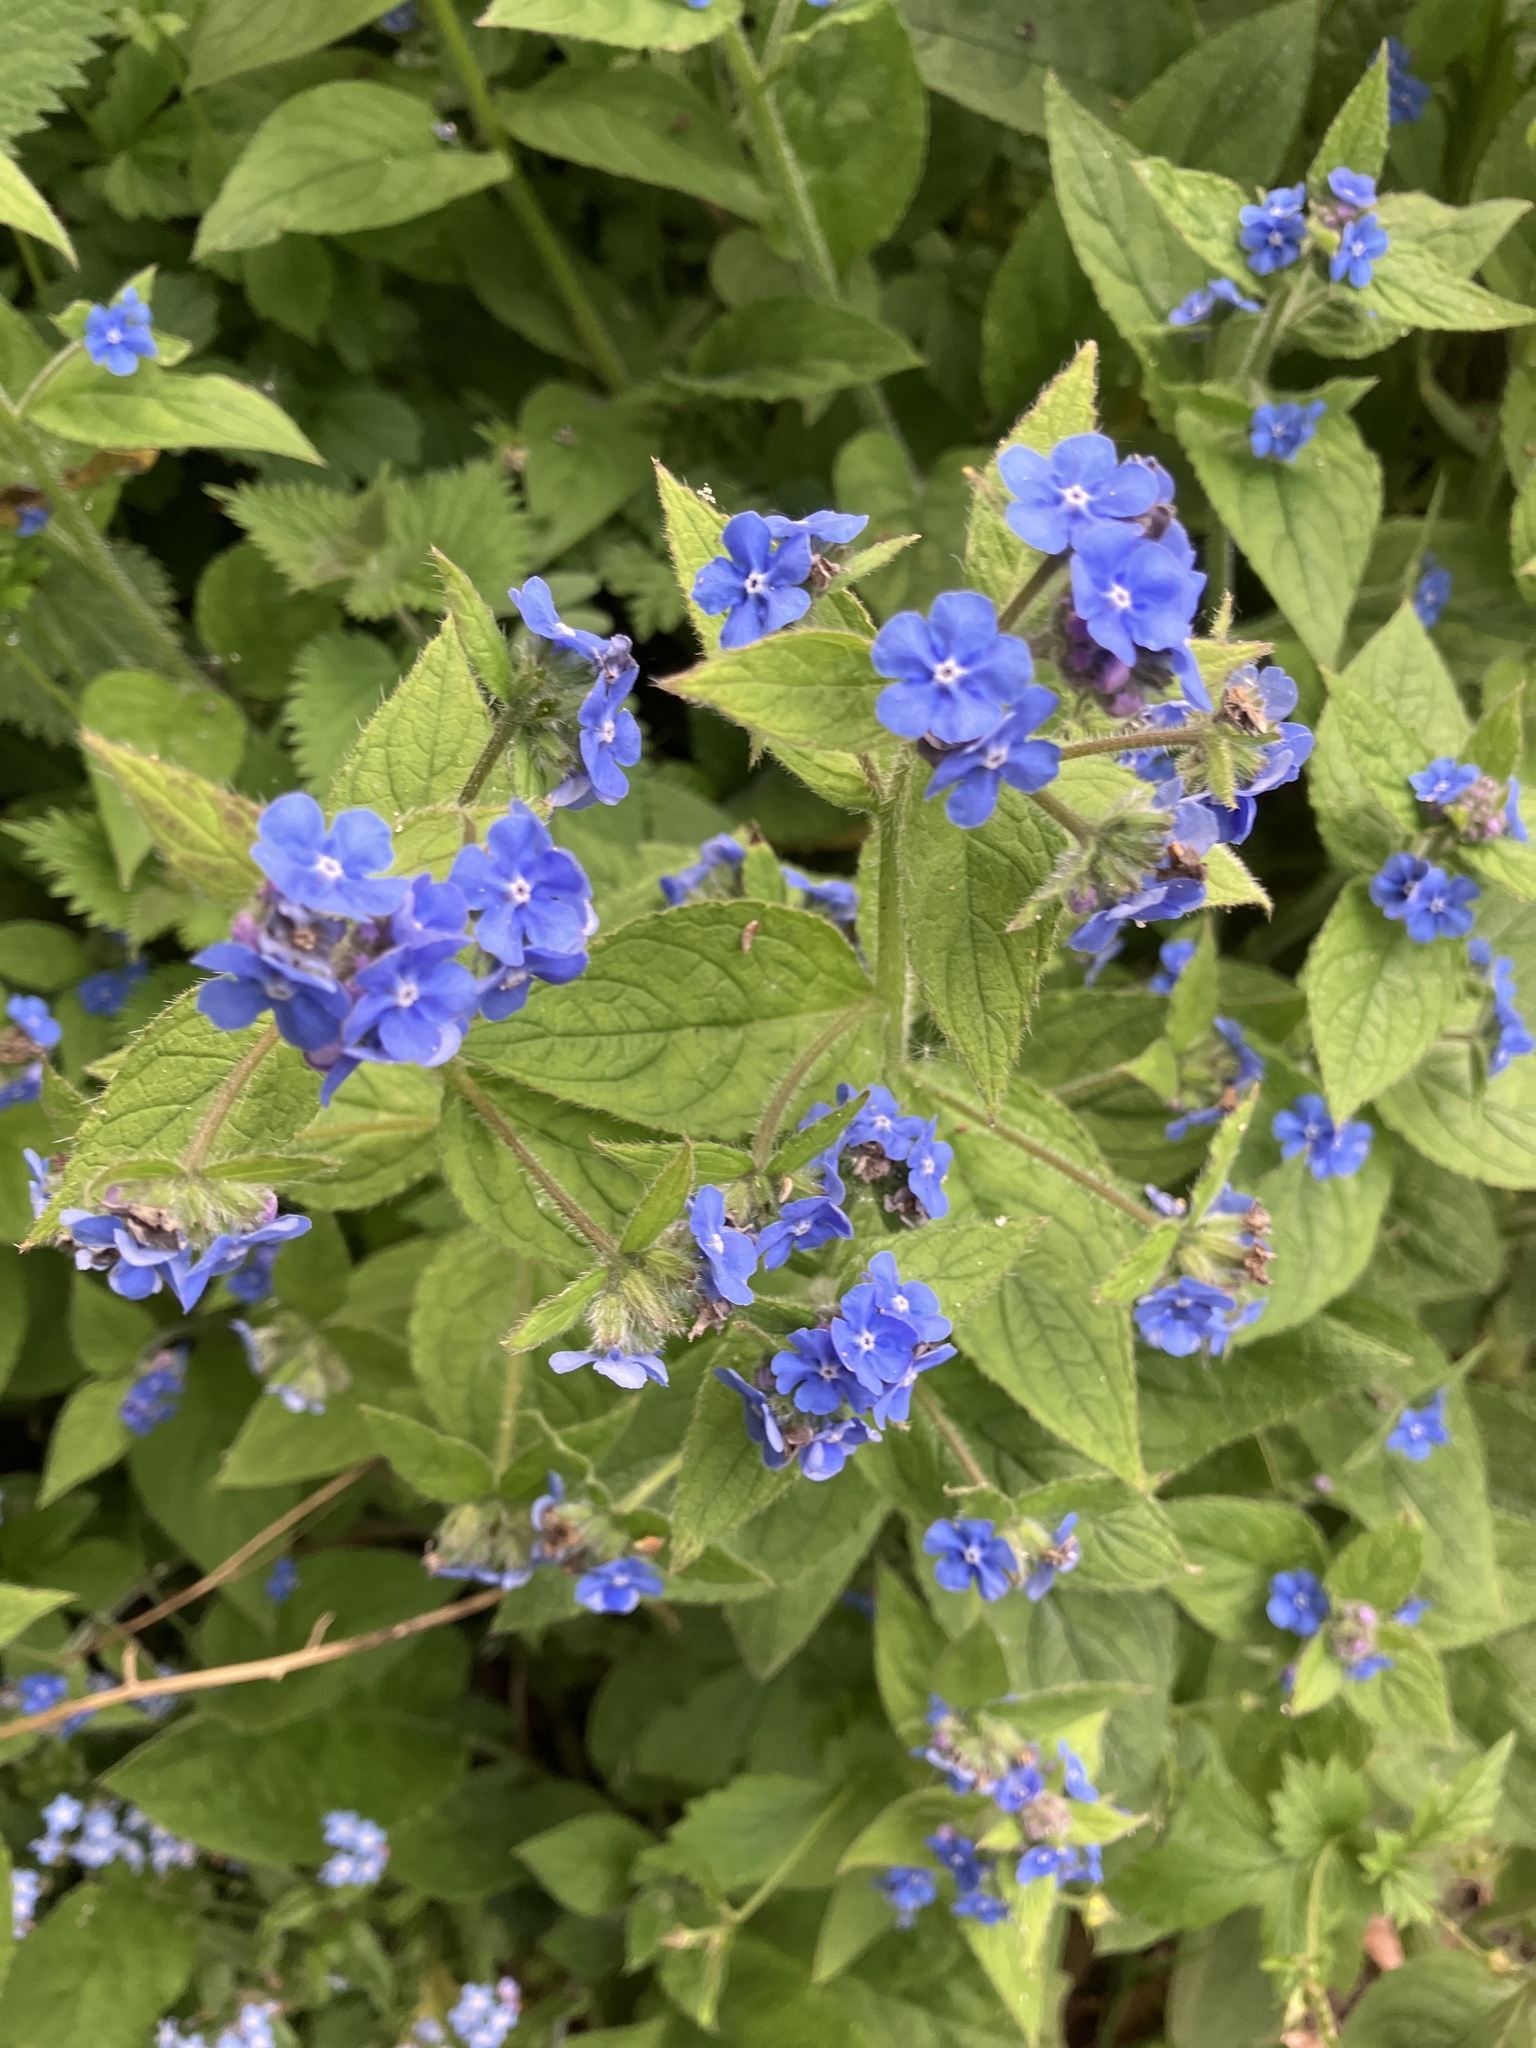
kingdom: Plantae
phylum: Tracheophyta
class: Magnoliopsida
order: Boraginales
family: Boraginaceae
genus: Pentaglottis
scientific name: Pentaglottis sempervirens
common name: Green alkanet
